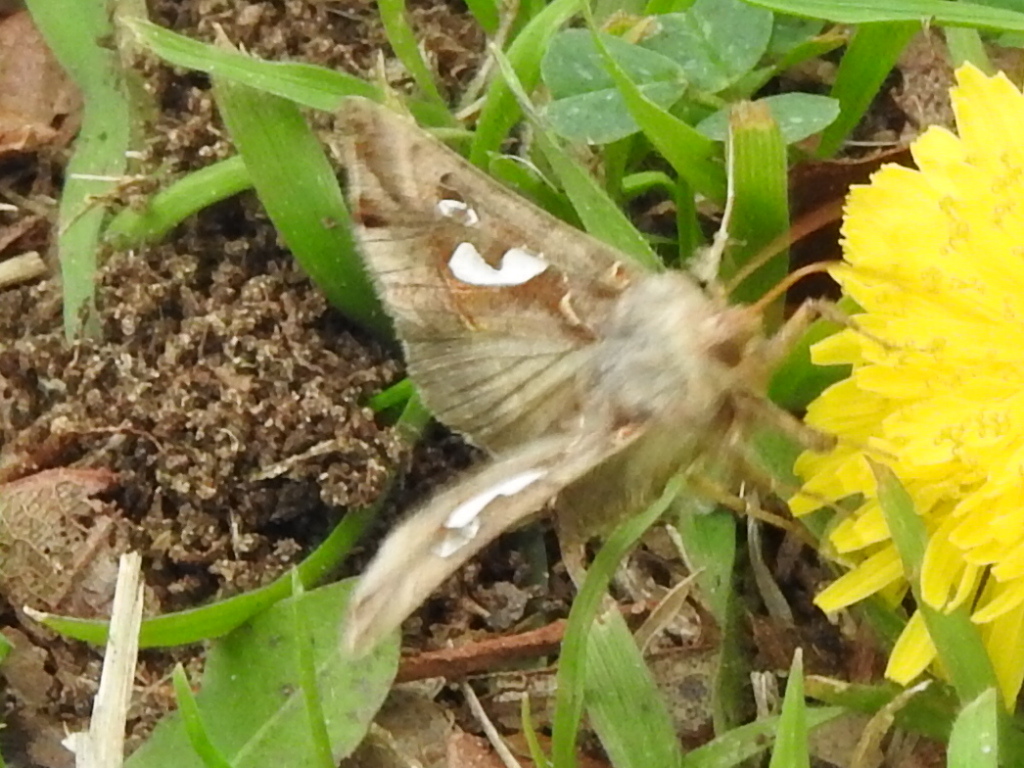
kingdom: Animalia
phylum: Arthropoda
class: Insecta
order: Lepidoptera
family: Noctuidae
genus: Megalographa
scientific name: Megalographa biloba
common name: Cutworm
